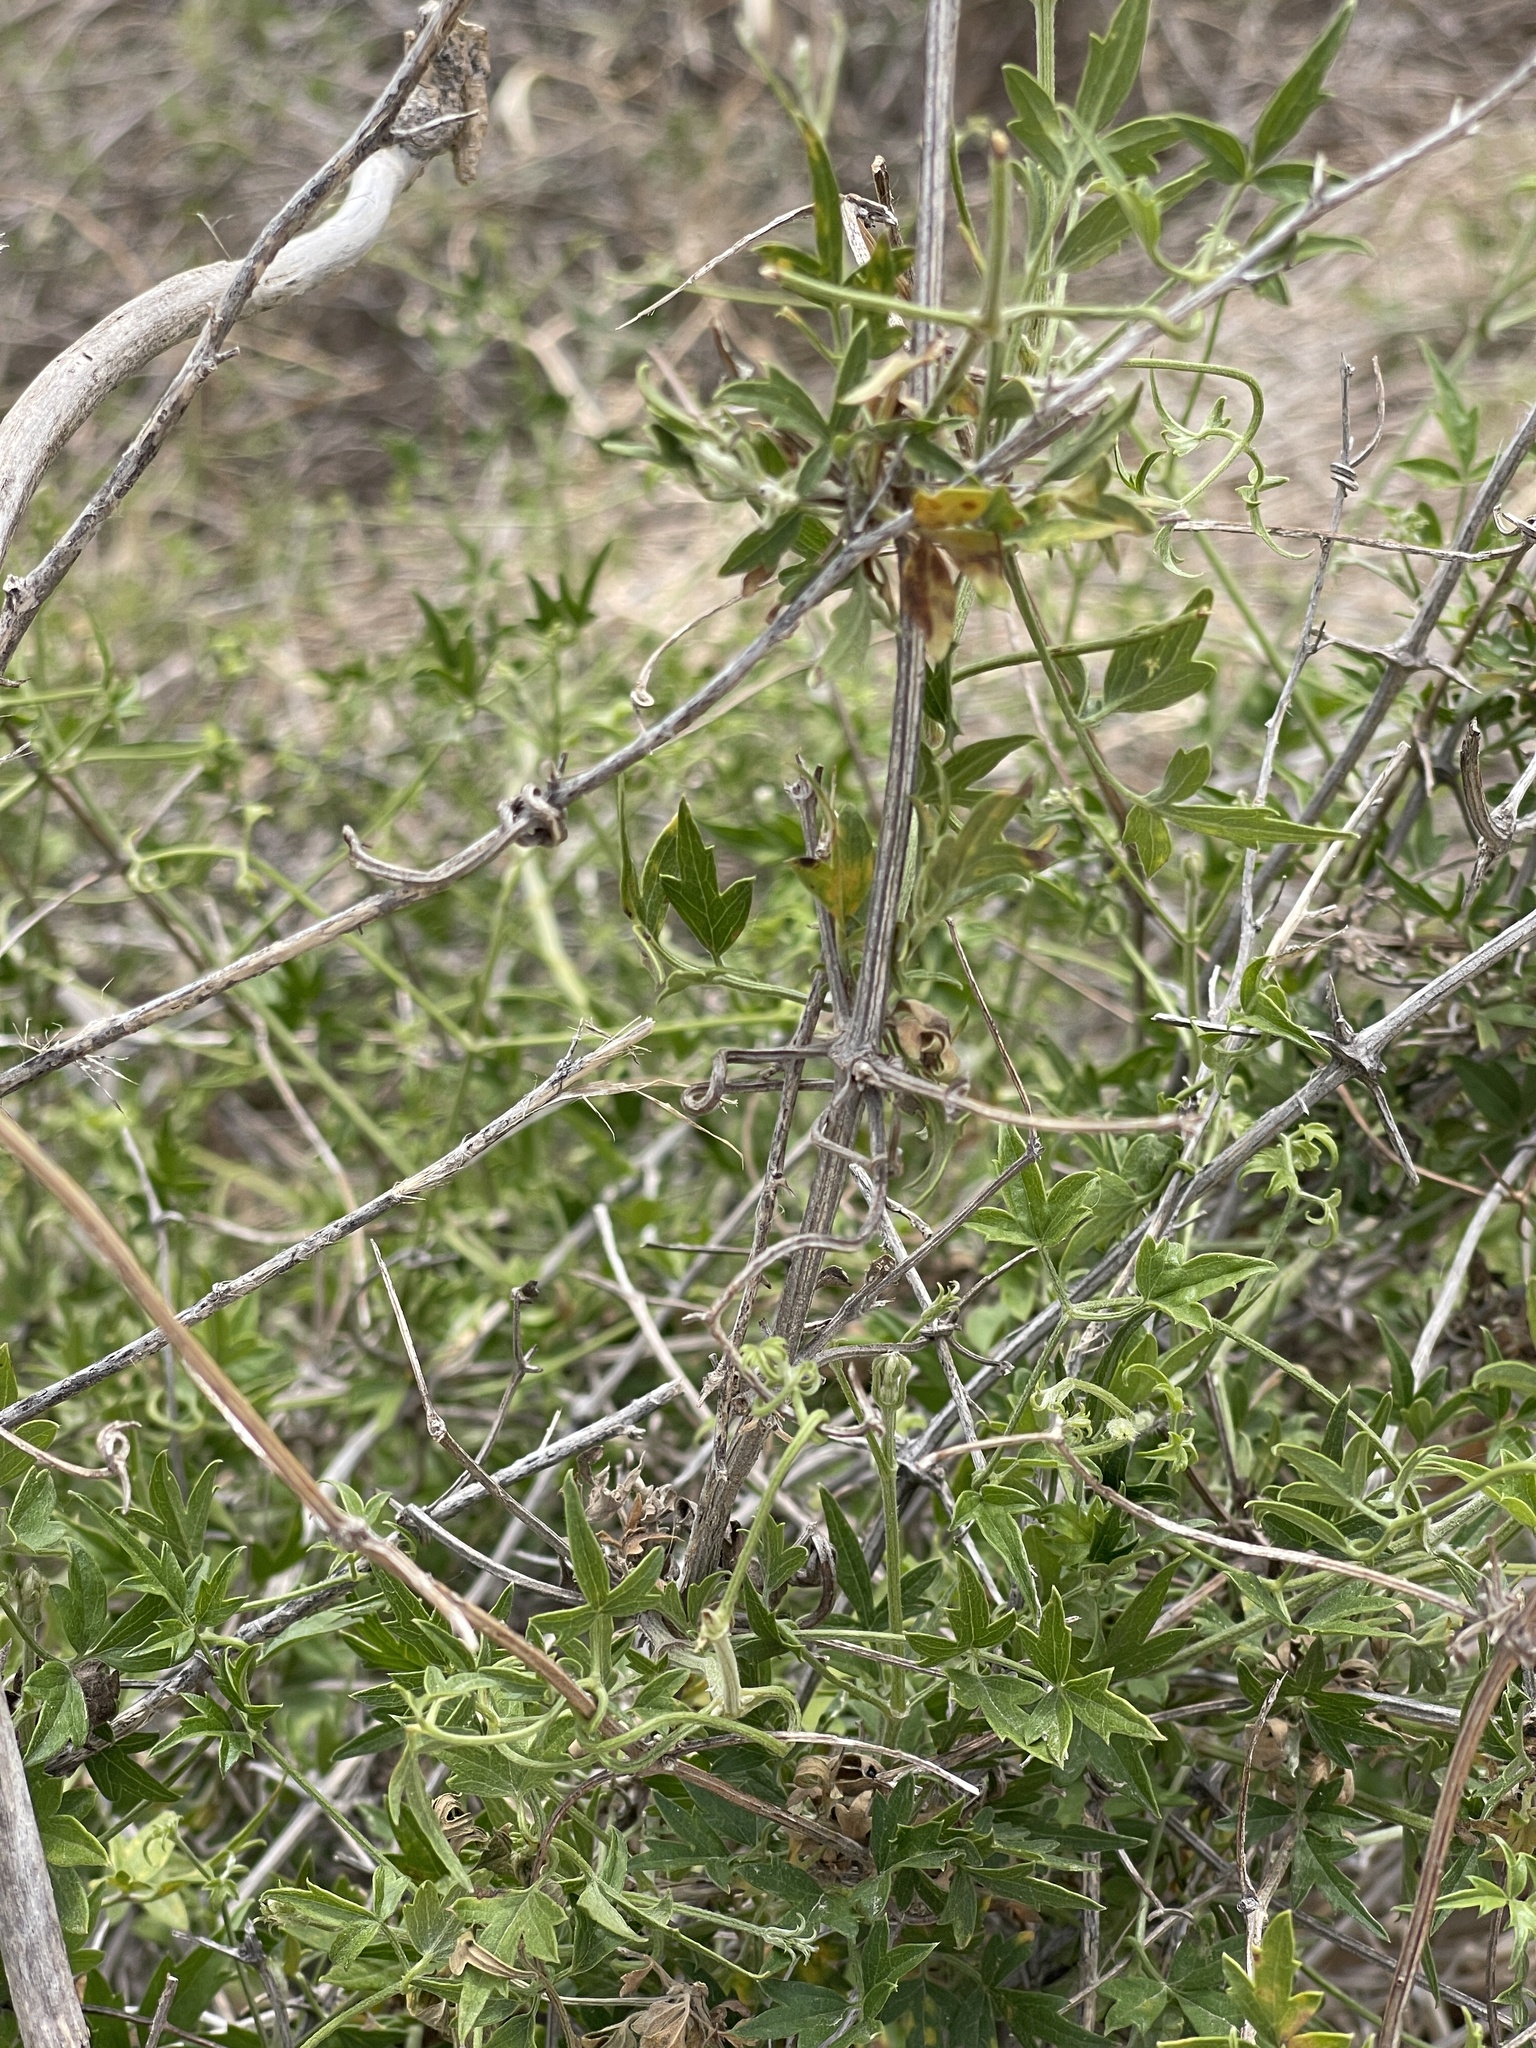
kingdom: Plantae
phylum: Tracheophyta
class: Magnoliopsida
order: Ranunculales
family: Ranunculaceae
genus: Clematis
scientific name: Clematis drummondii
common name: Texas virgin's bower
